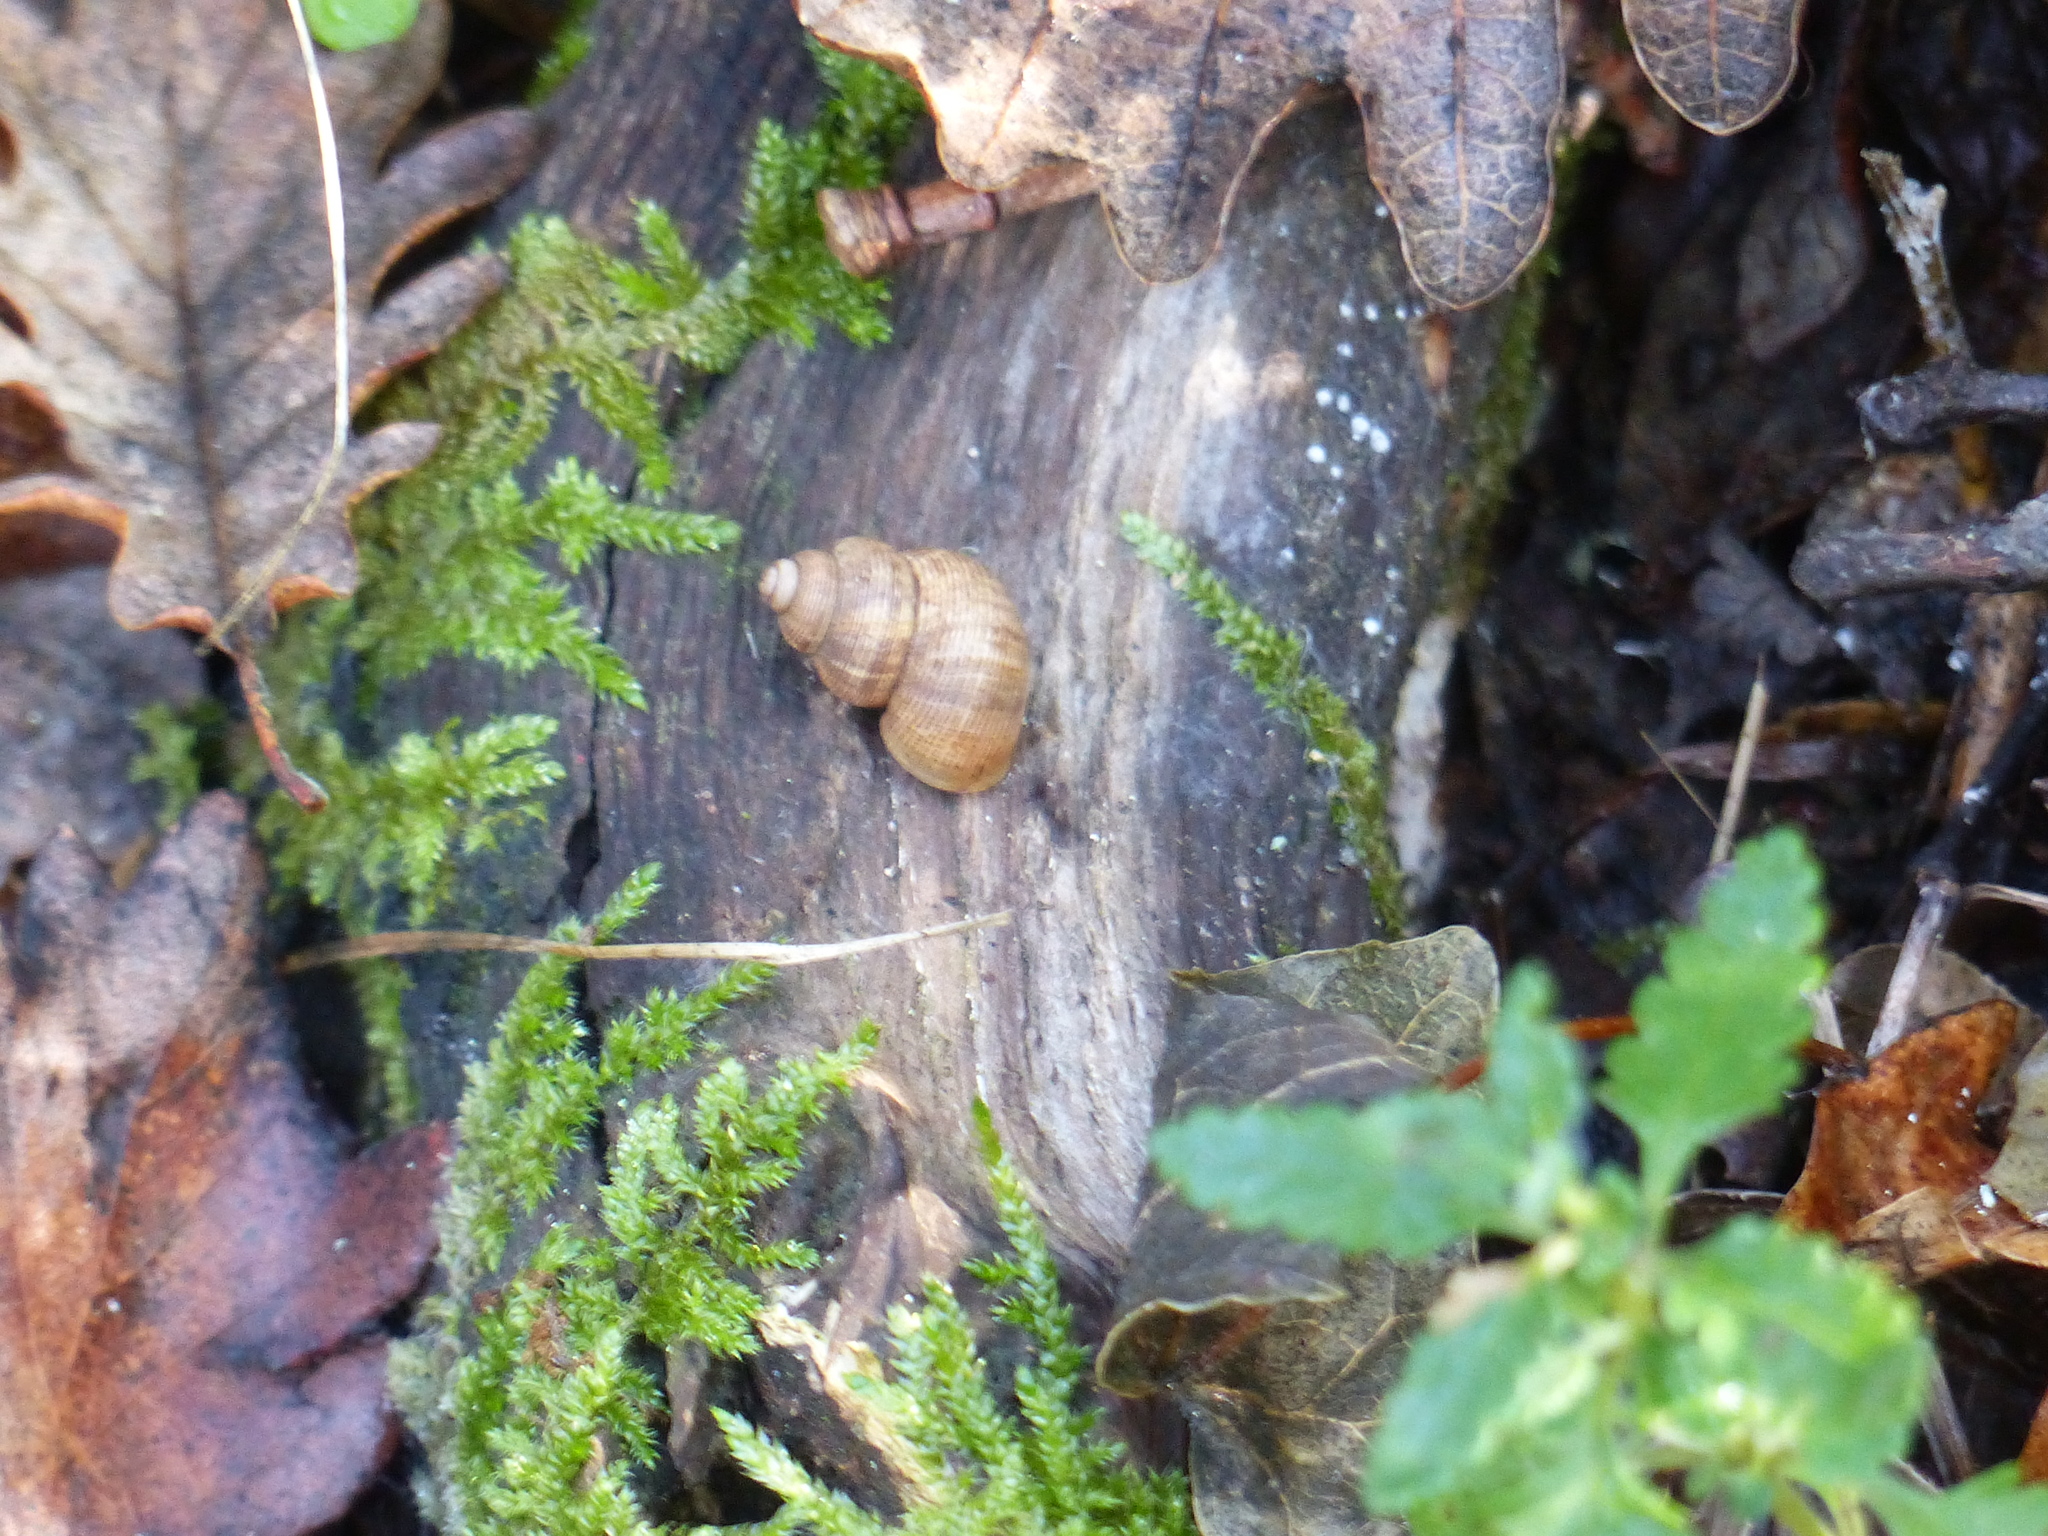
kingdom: Animalia
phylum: Mollusca
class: Gastropoda
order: Littorinimorpha
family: Pomatiidae
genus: Pomatias
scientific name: Pomatias elegans
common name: Red-mouthed snail
